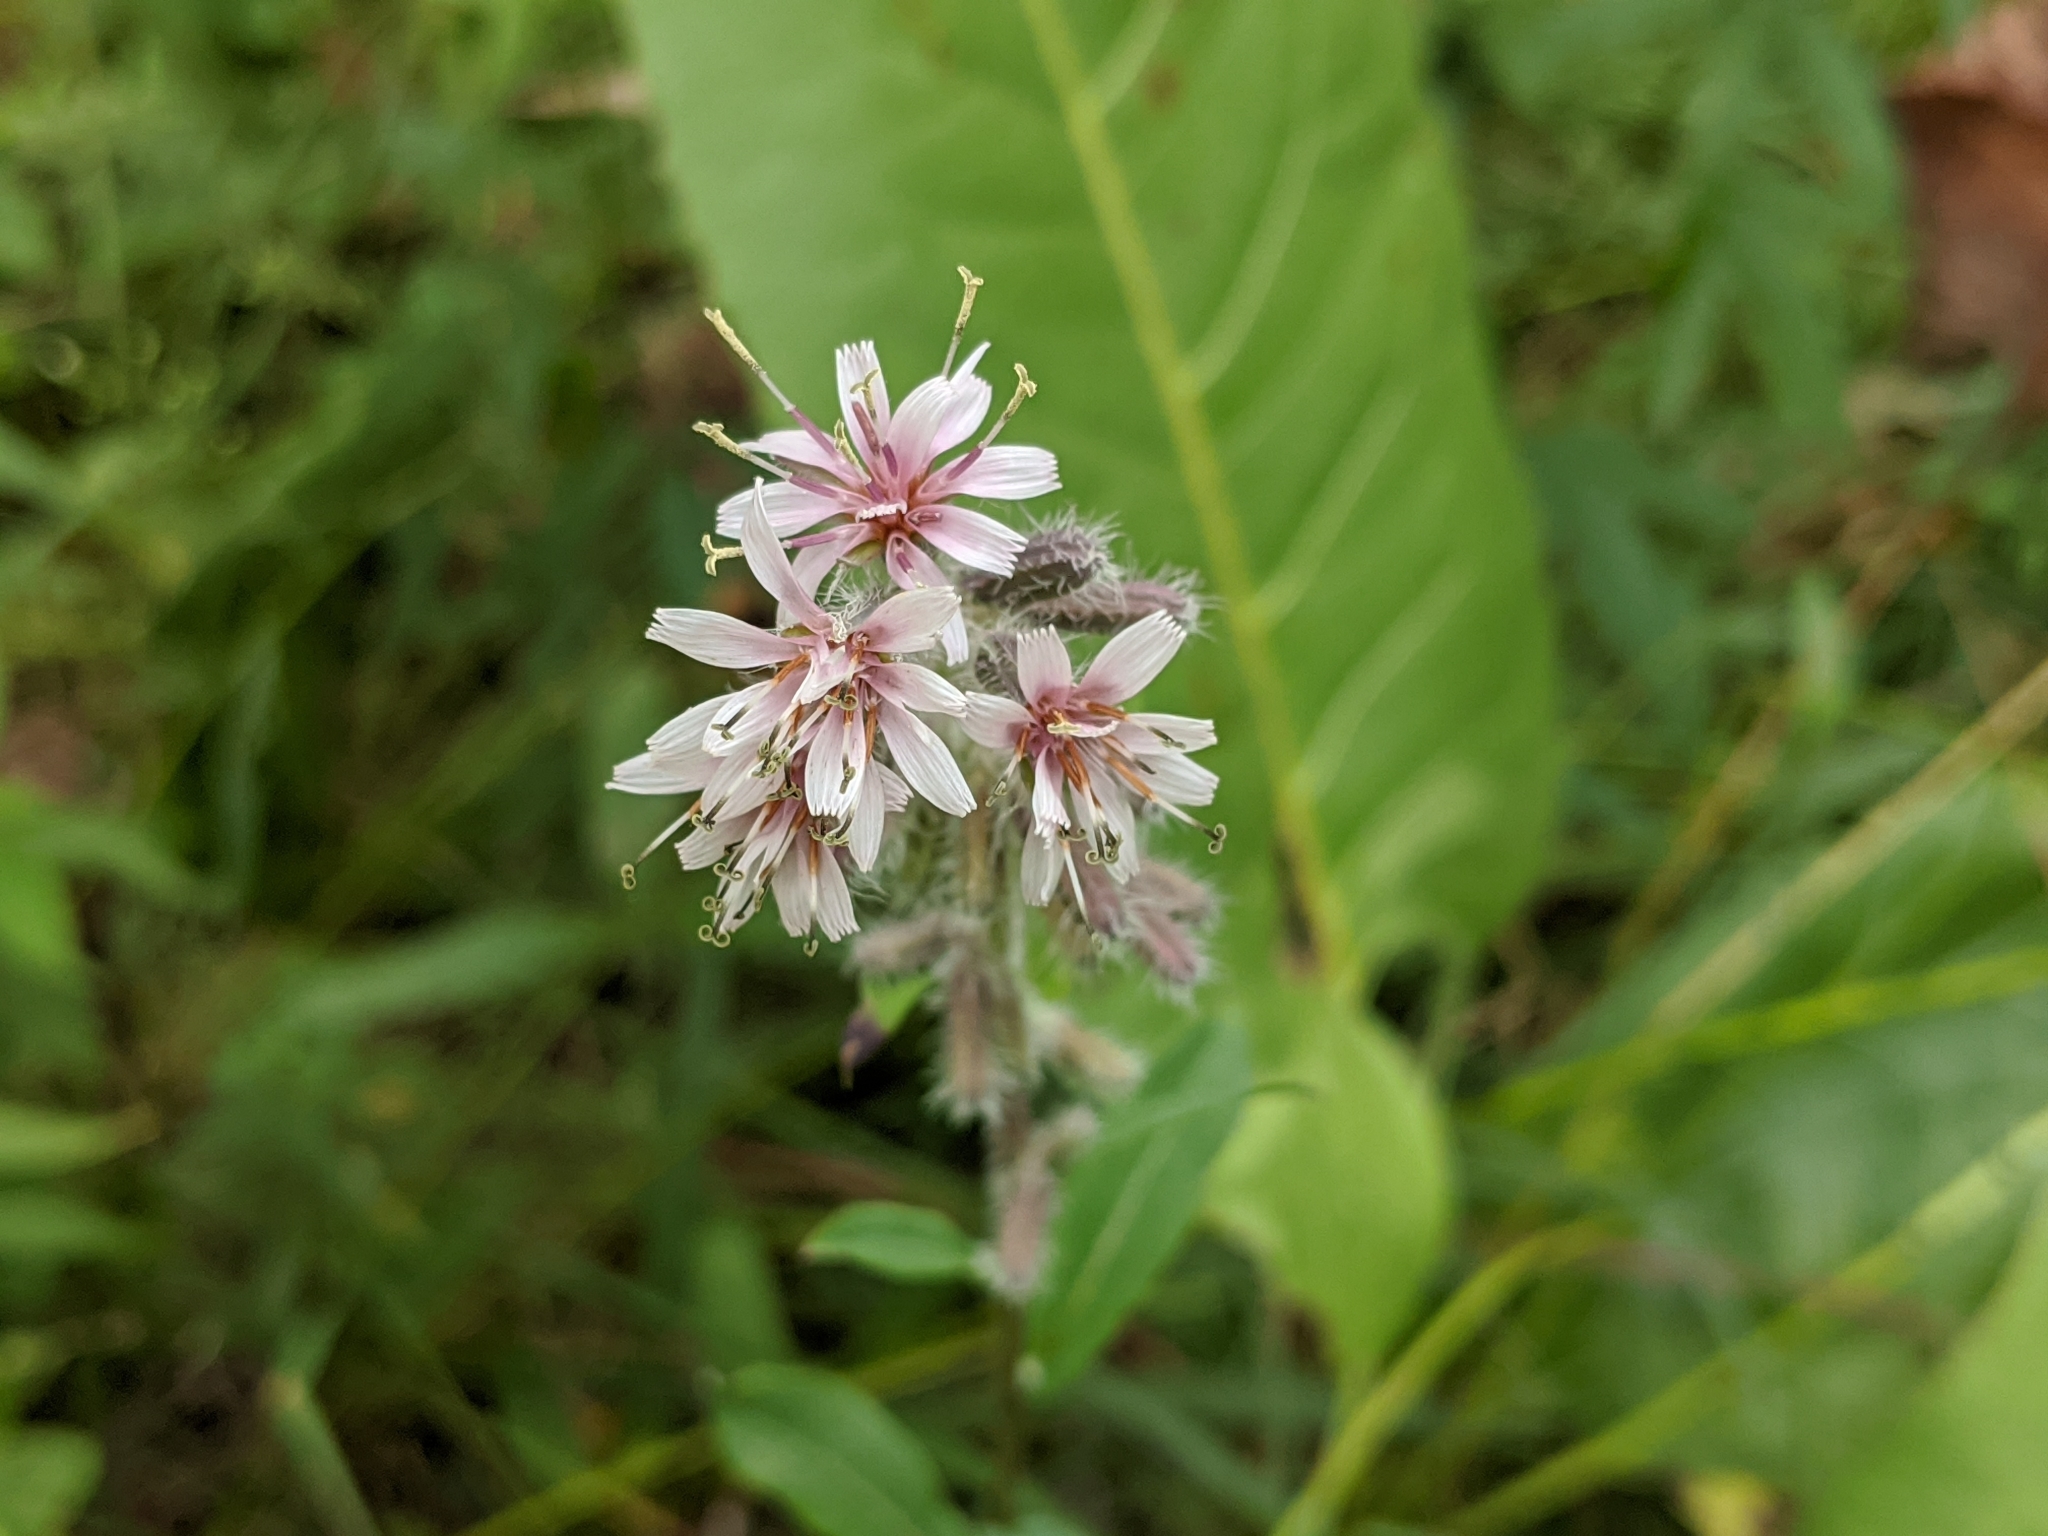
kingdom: Plantae
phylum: Tracheophyta
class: Magnoliopsida
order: Asterales
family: Asteraceae
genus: Nabalus
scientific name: Nabalus racemosus
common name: Glaucous white lettuce
